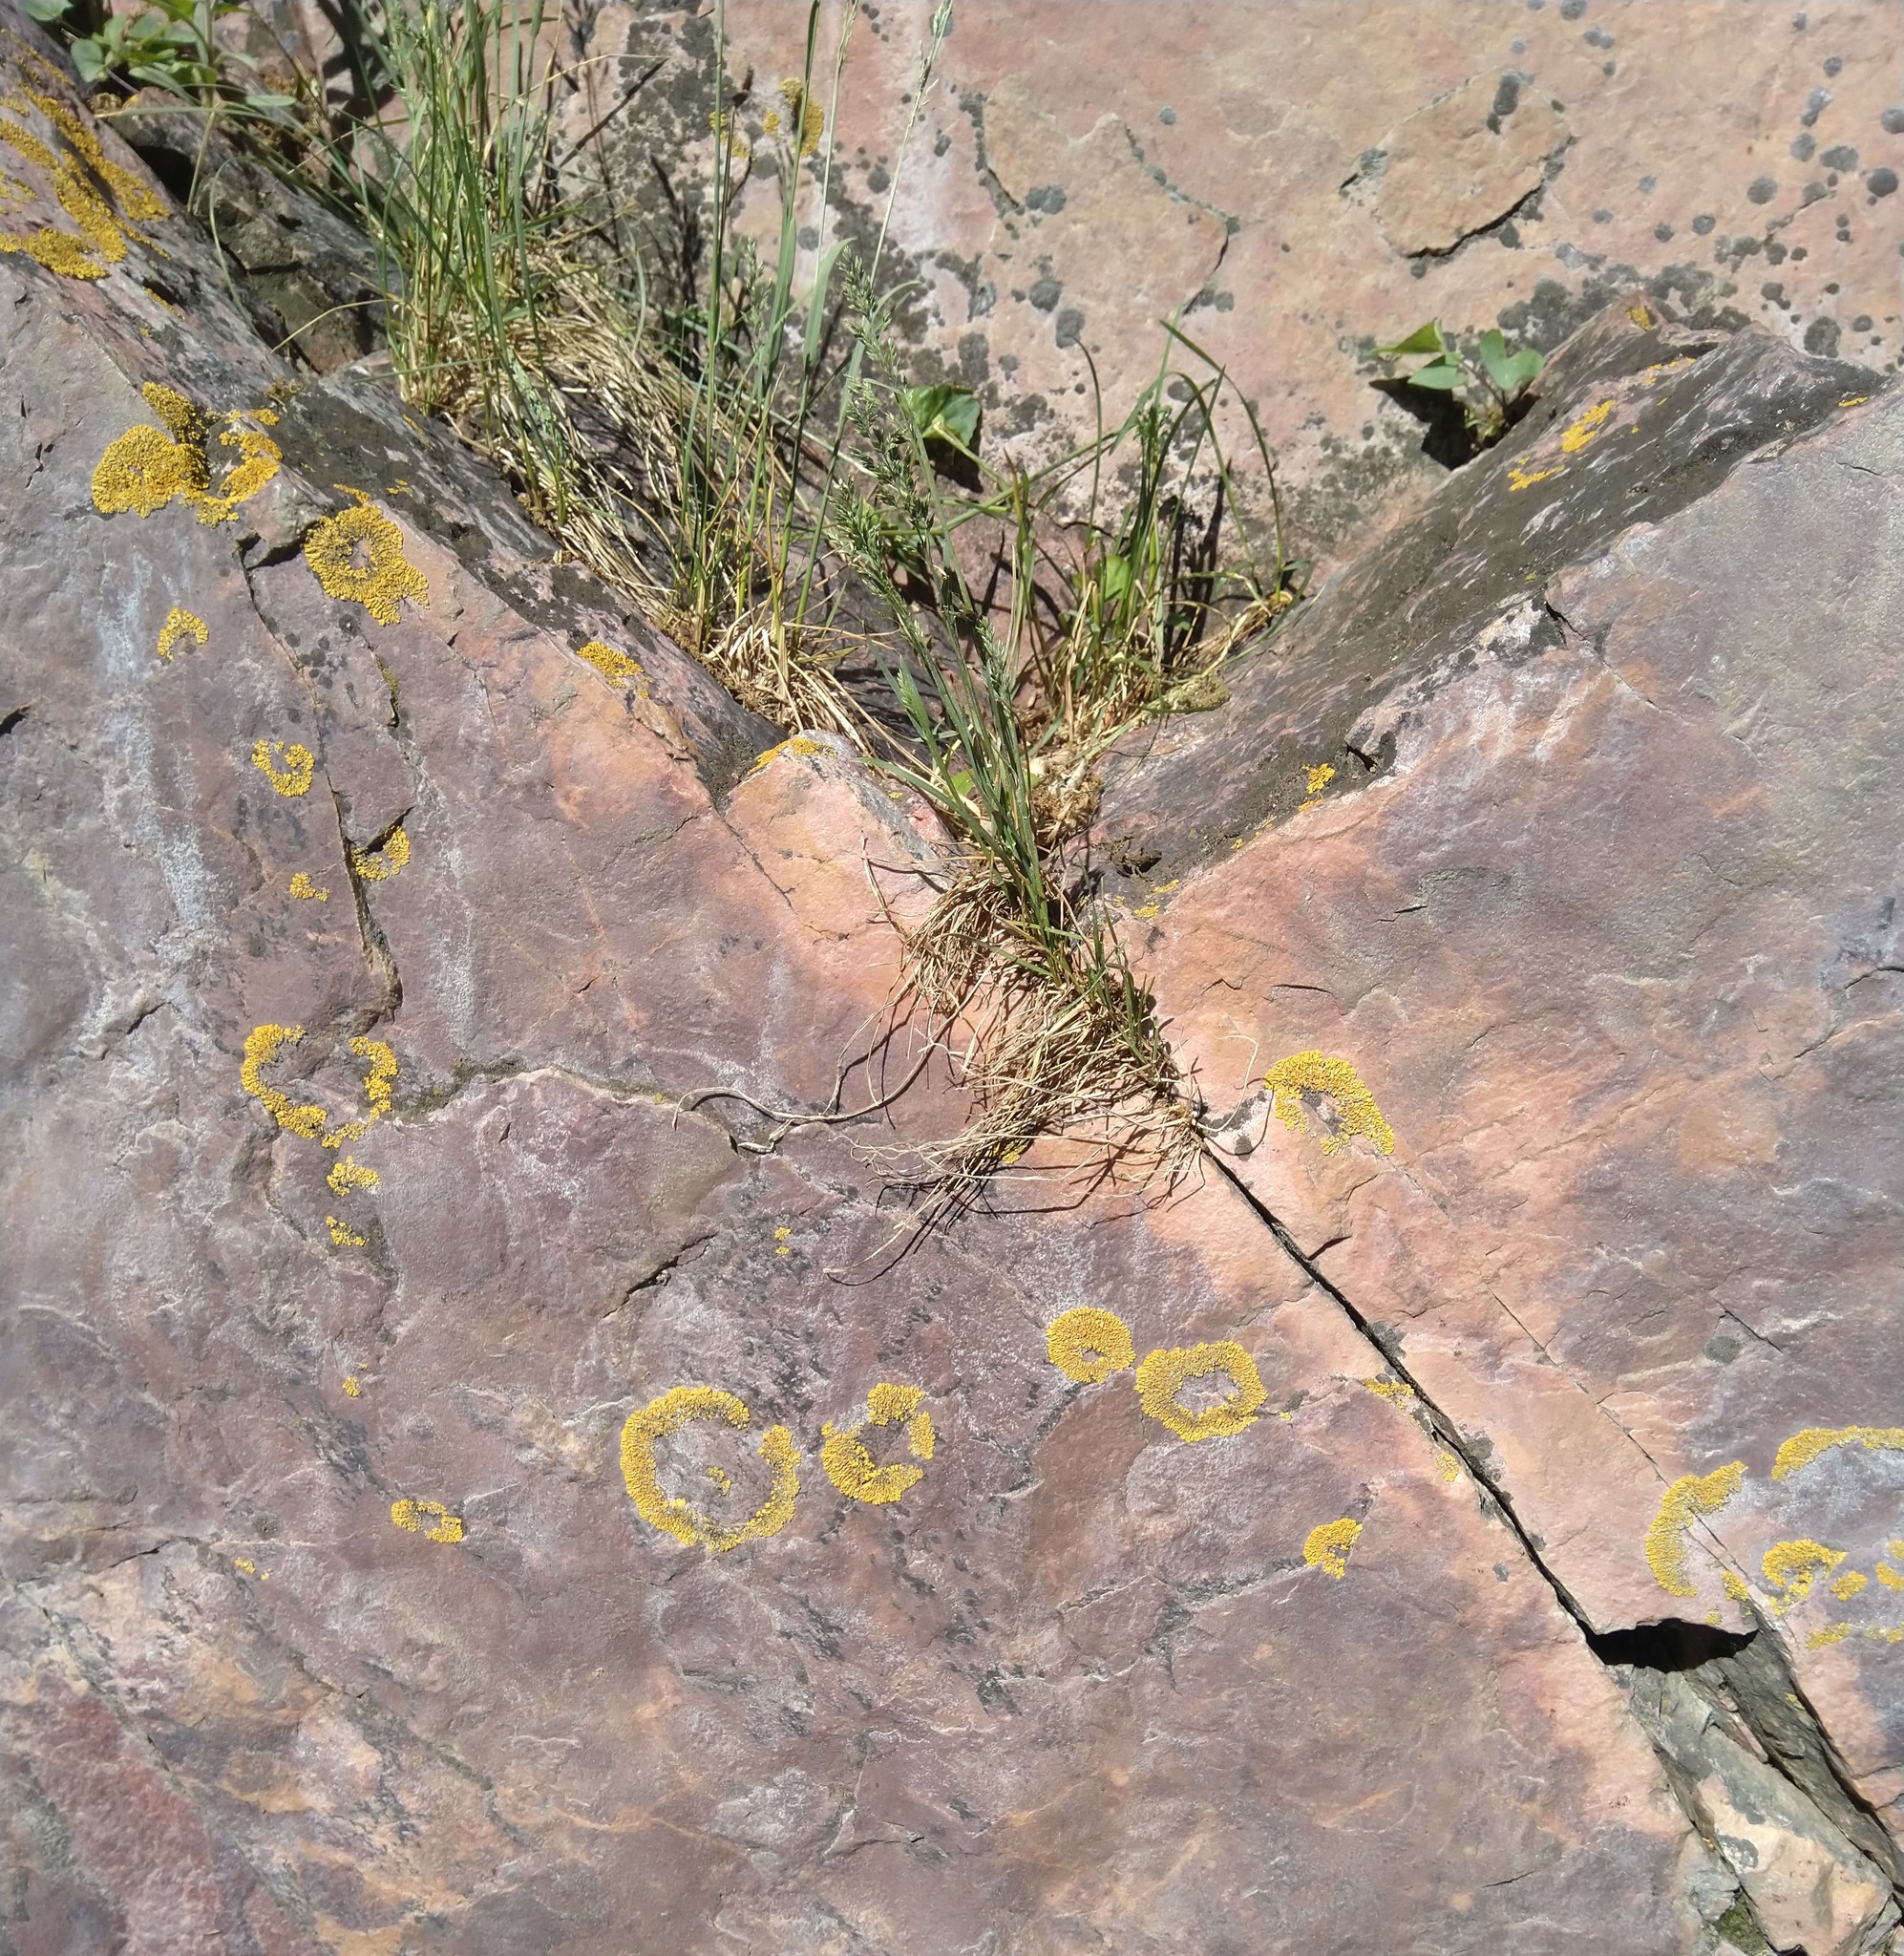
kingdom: Fungi
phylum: Ascomycota
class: Lecanoromycetes
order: Teloschistales
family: Teloschistaceae
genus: Xanthoria
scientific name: Xanthoria elegans
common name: Elegant sunburst lichen
